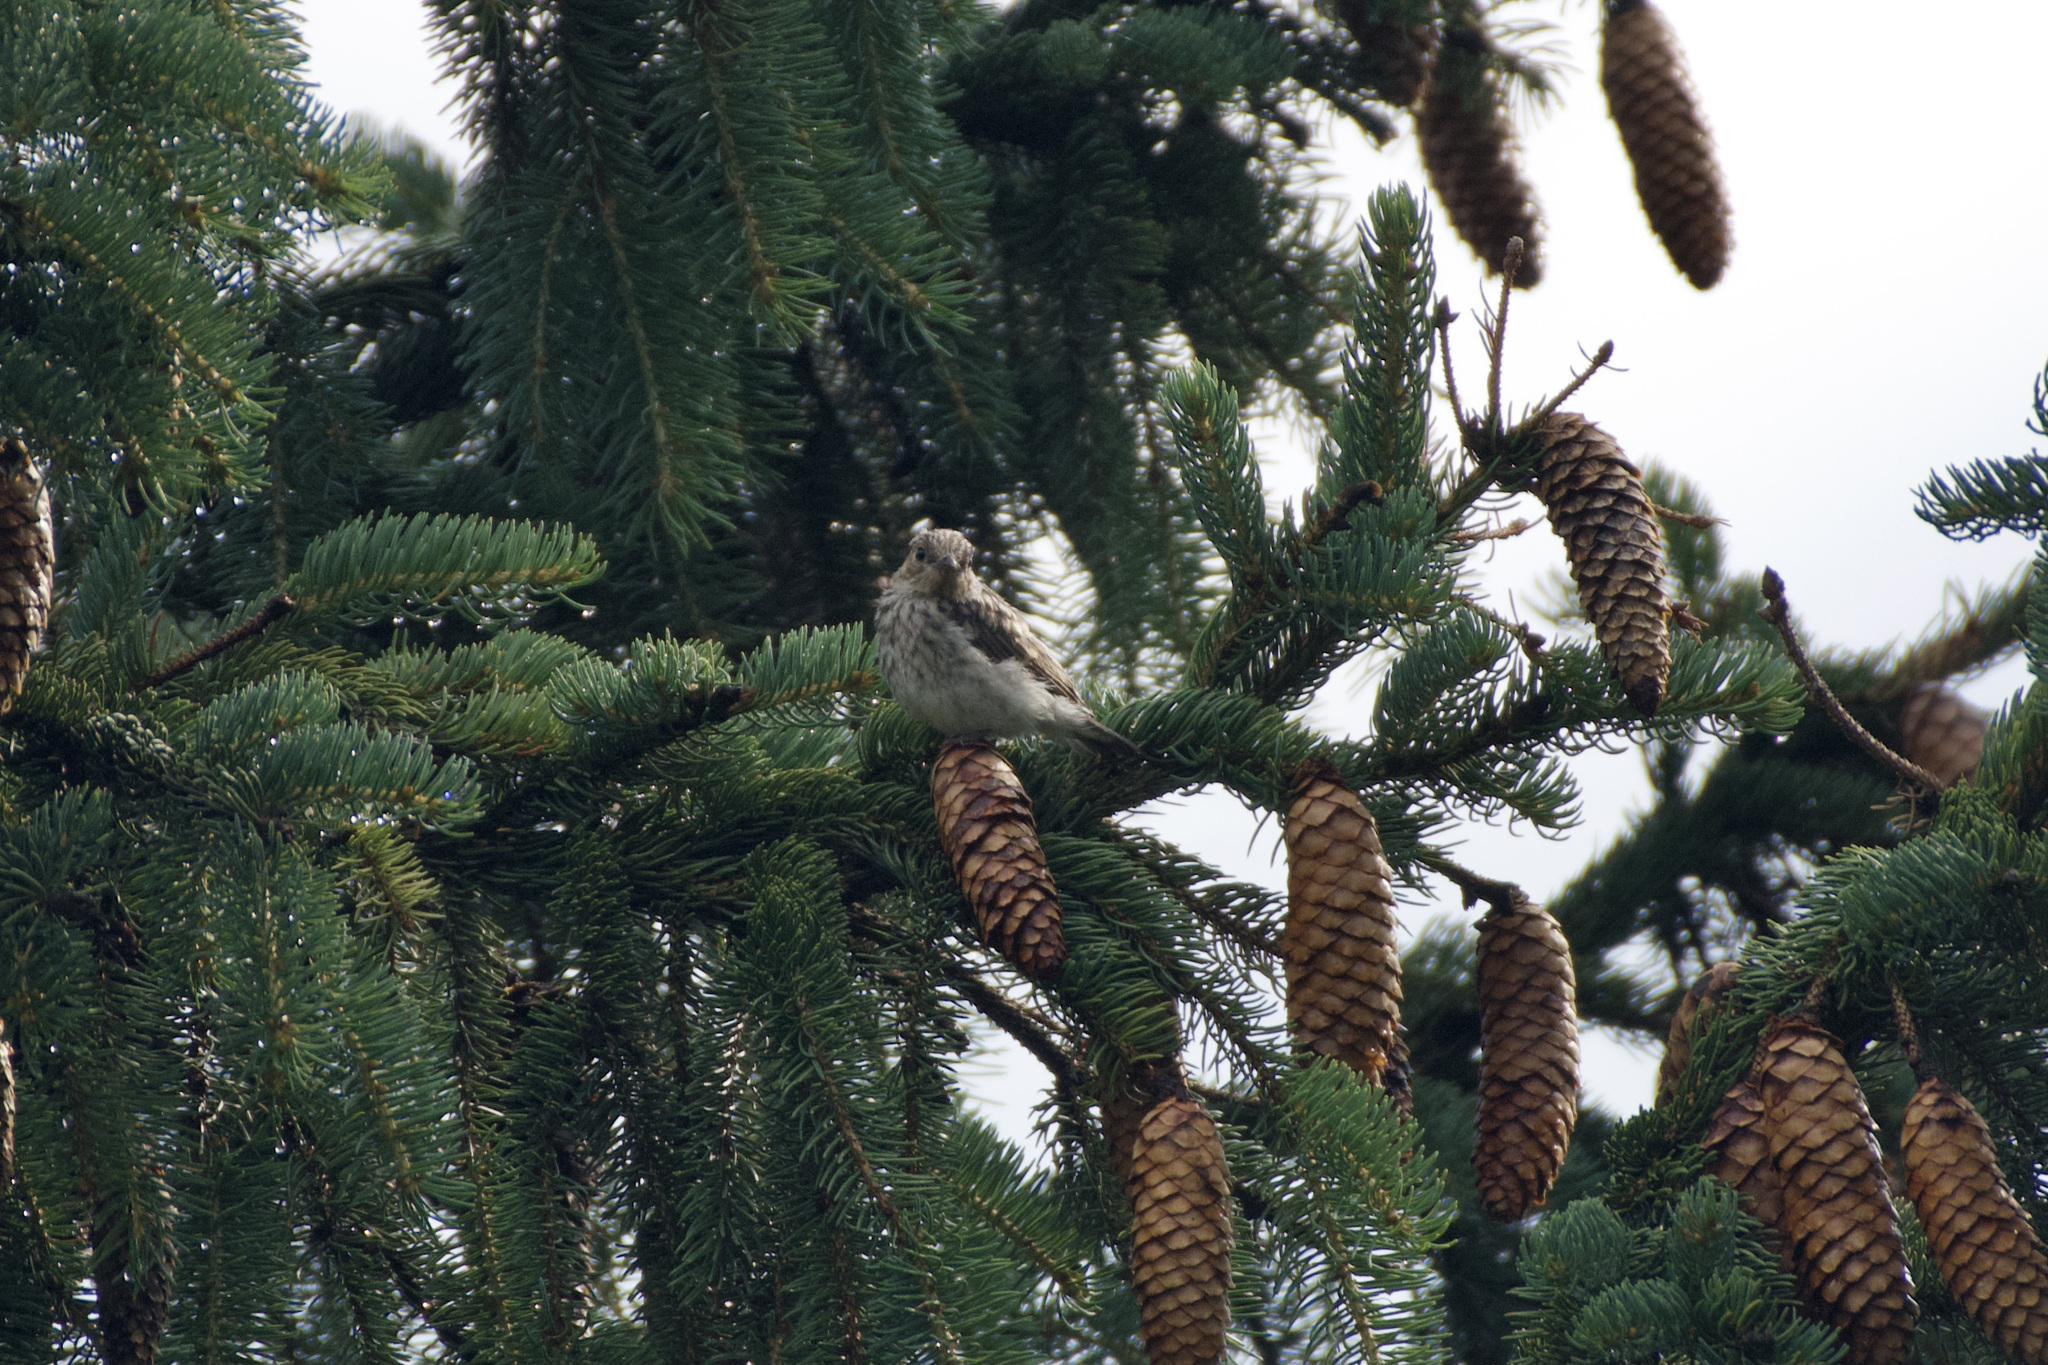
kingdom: Animalia
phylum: Chordata
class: Aves
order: Passeriformes
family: Muscicapidae
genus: Muscicapa
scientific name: Muscicapa striata
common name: Spotted flycatcher
